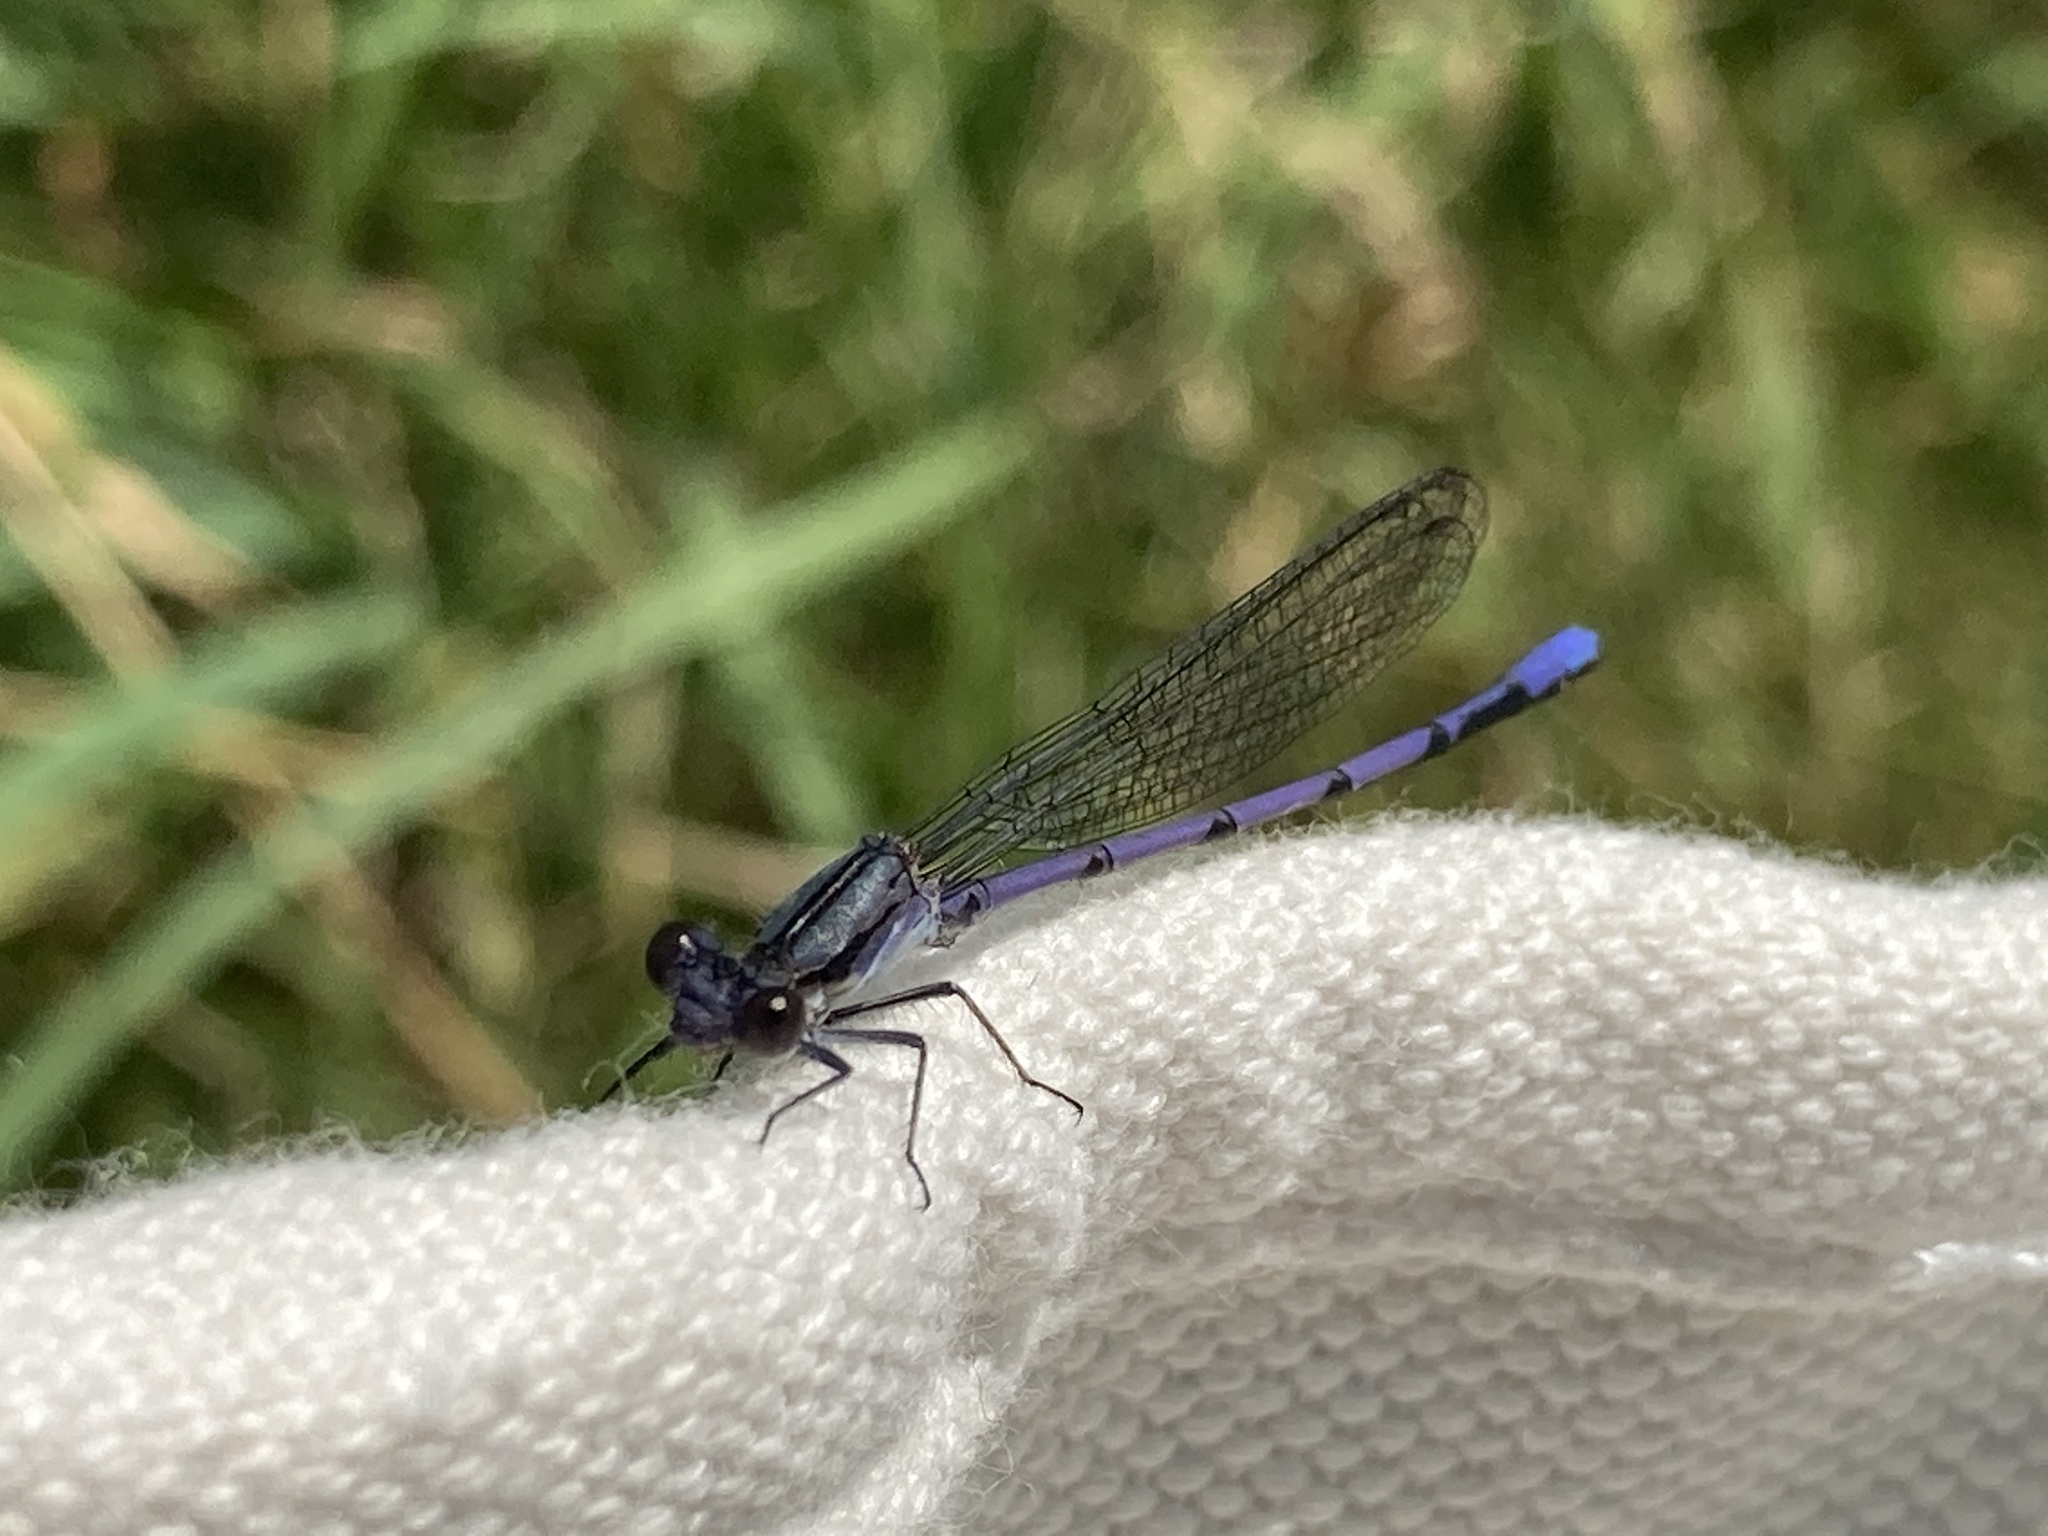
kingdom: Animalia
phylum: Arthropoda
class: Insecta
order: Odonata
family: Coenagrionidae
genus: Argia
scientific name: Argia fumipennis
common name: Variable dancer
